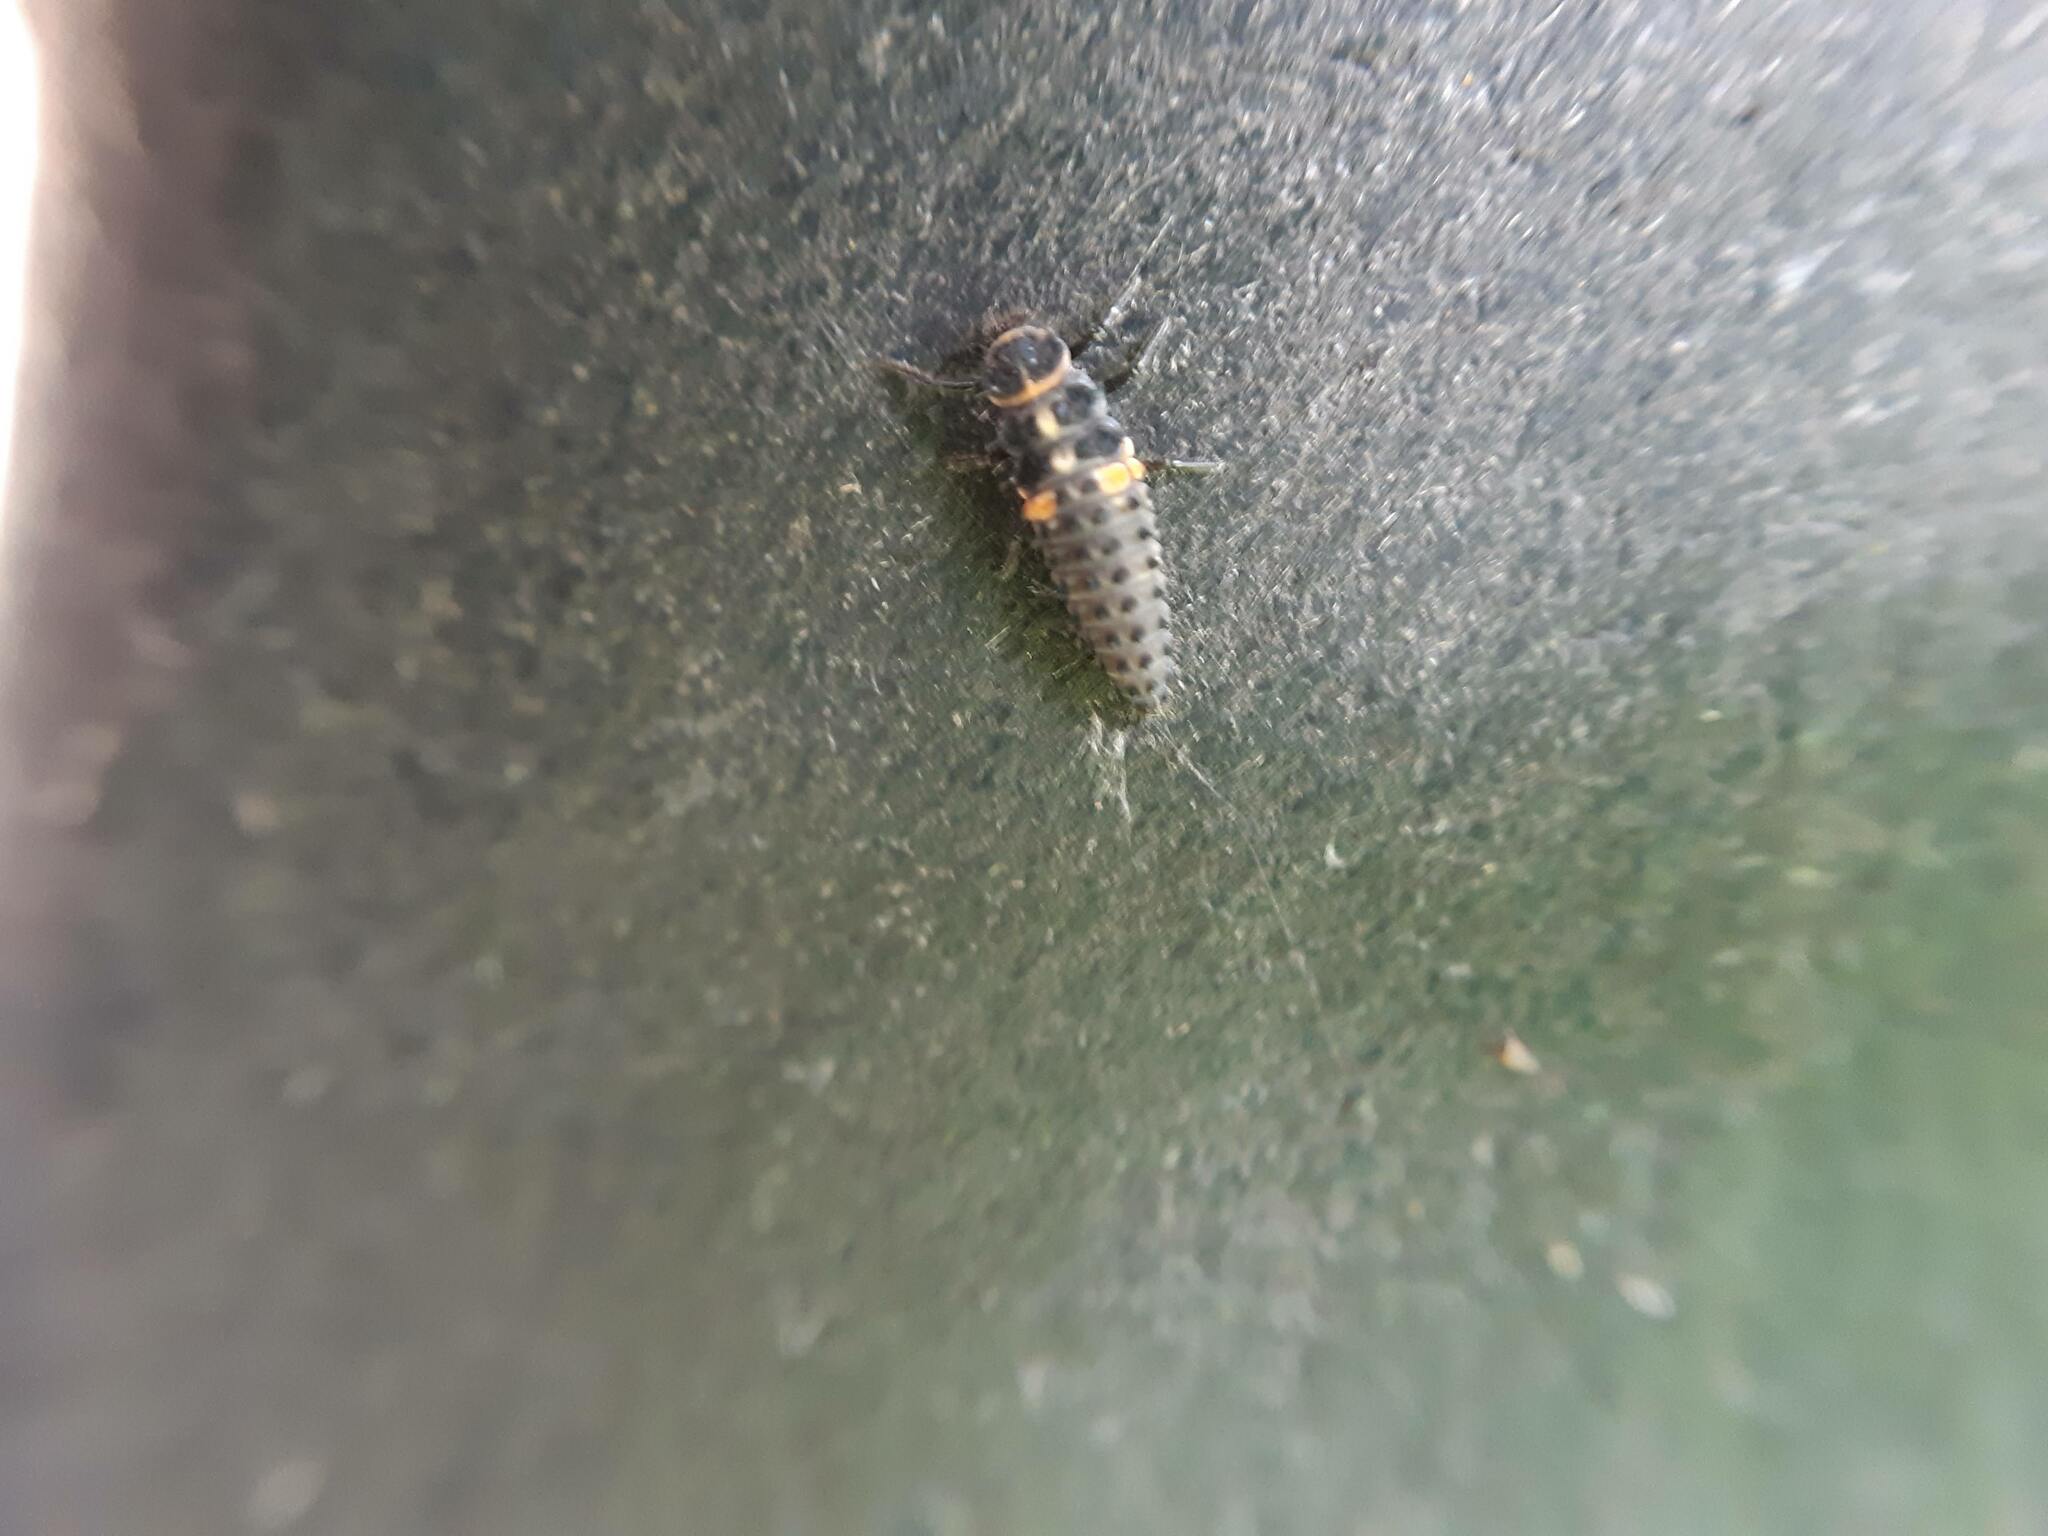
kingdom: Animalia
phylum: Arthropoda
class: Insecta
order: Coleoptera
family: Coccinellidae
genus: Hippodamia
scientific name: Hippodamia variegata
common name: Ladybird beetle
